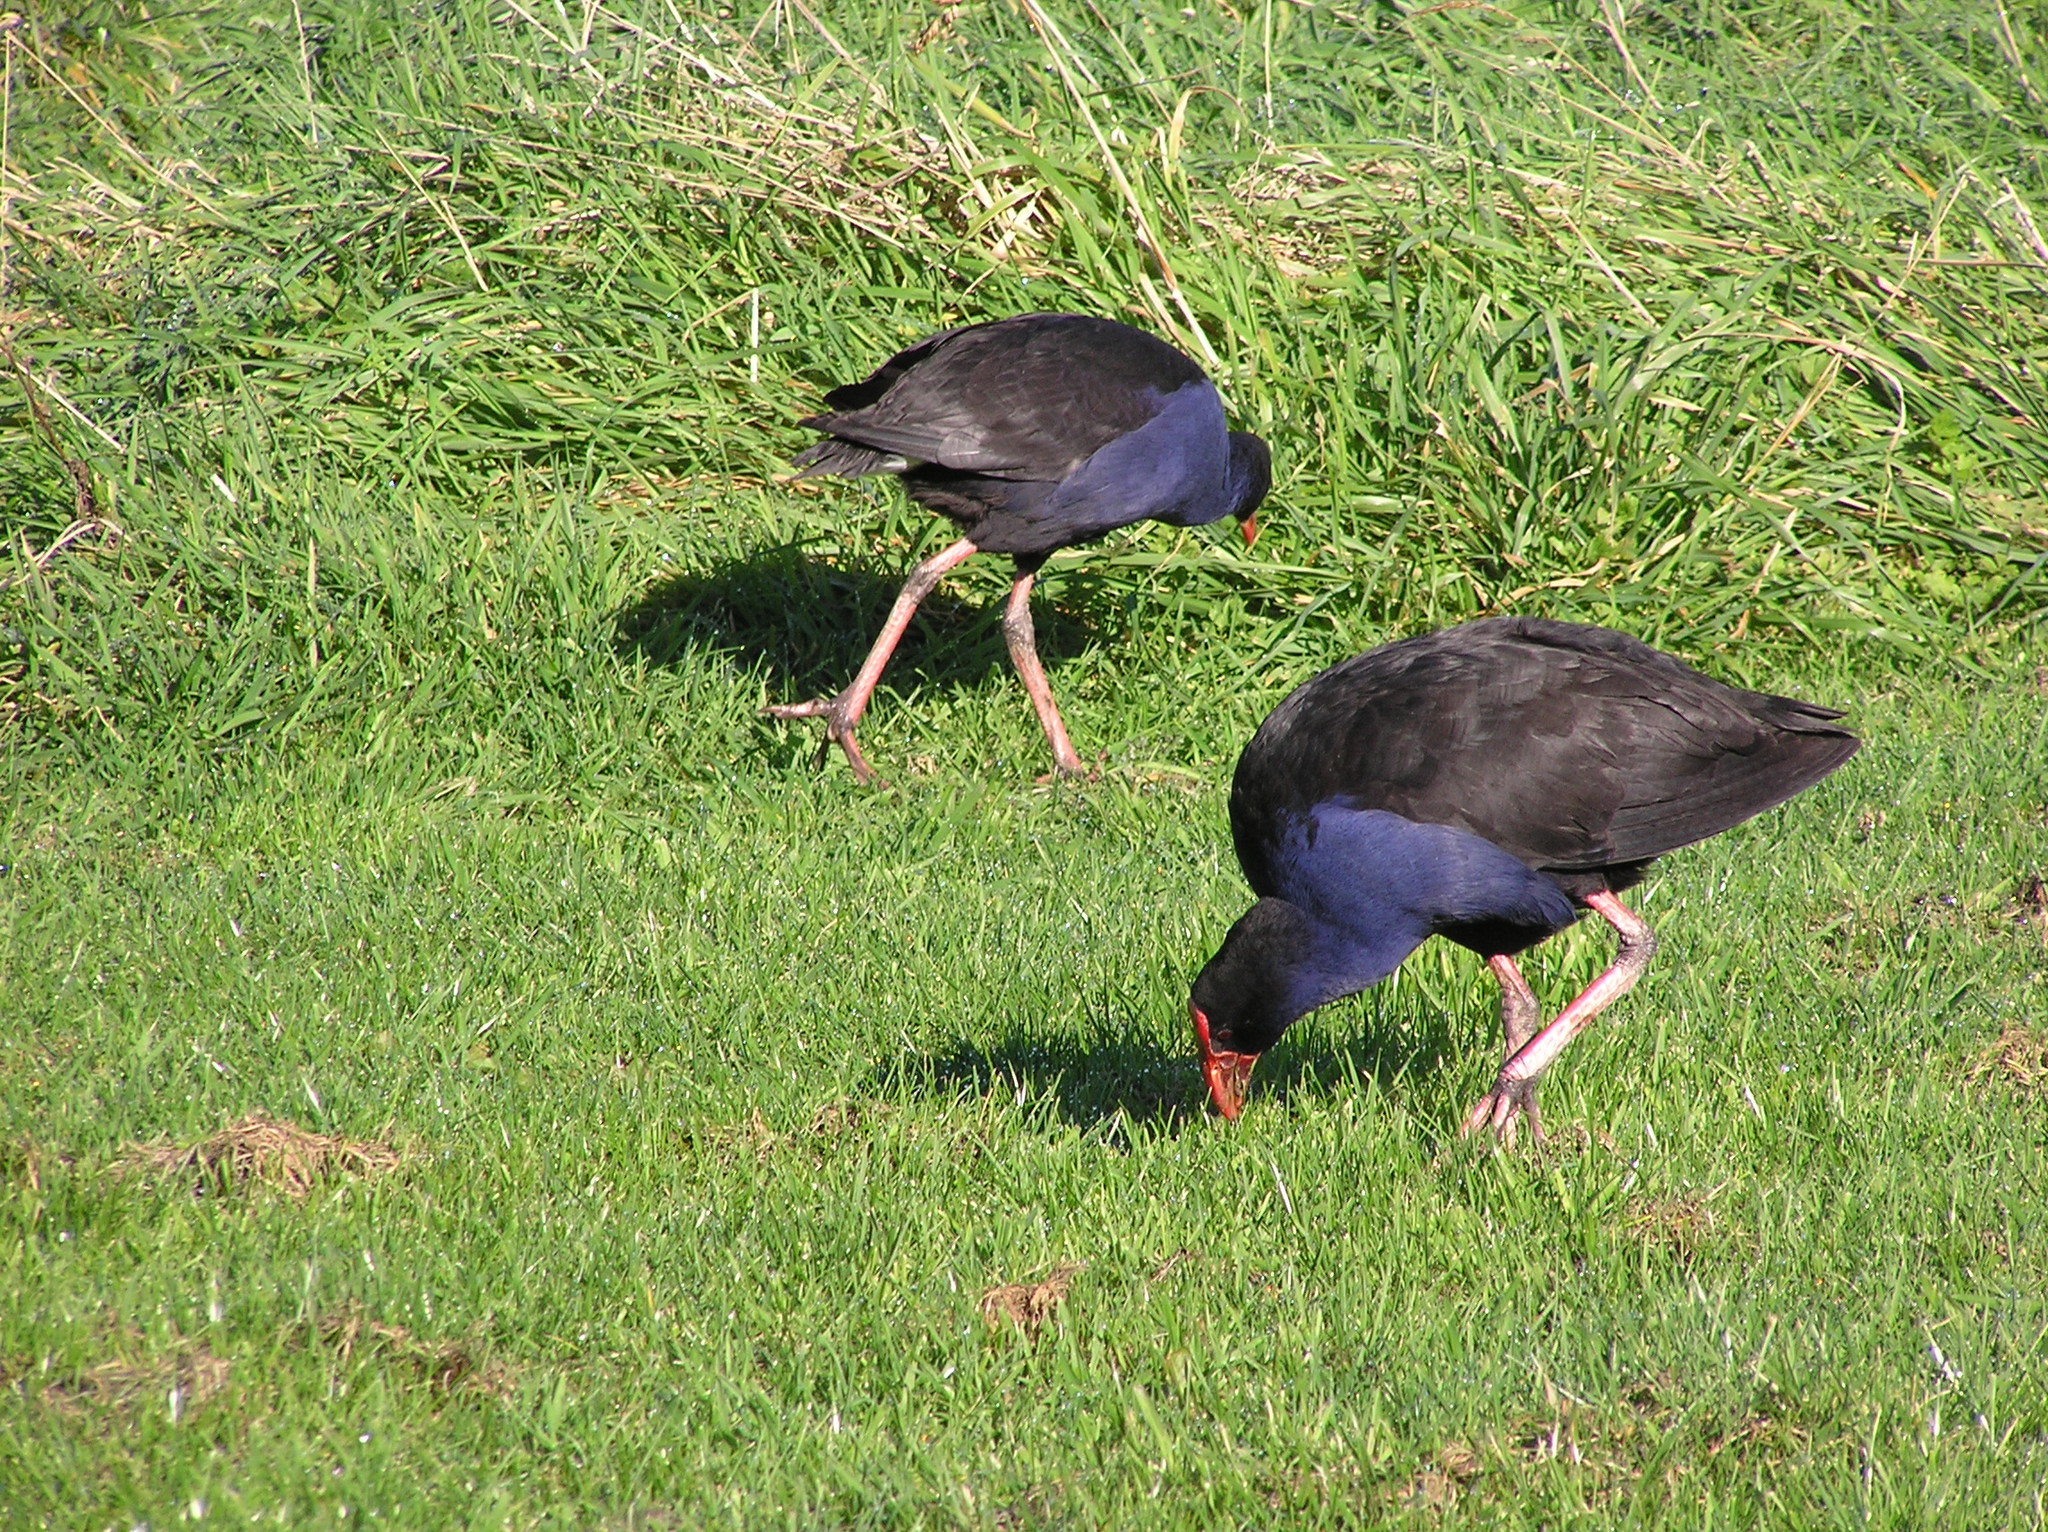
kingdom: Animalia
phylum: Chordata
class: Aves
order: Gruiformes
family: Rallidae
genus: Porphyrio
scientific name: Porphyrio melanotus
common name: Australasian swamphen
